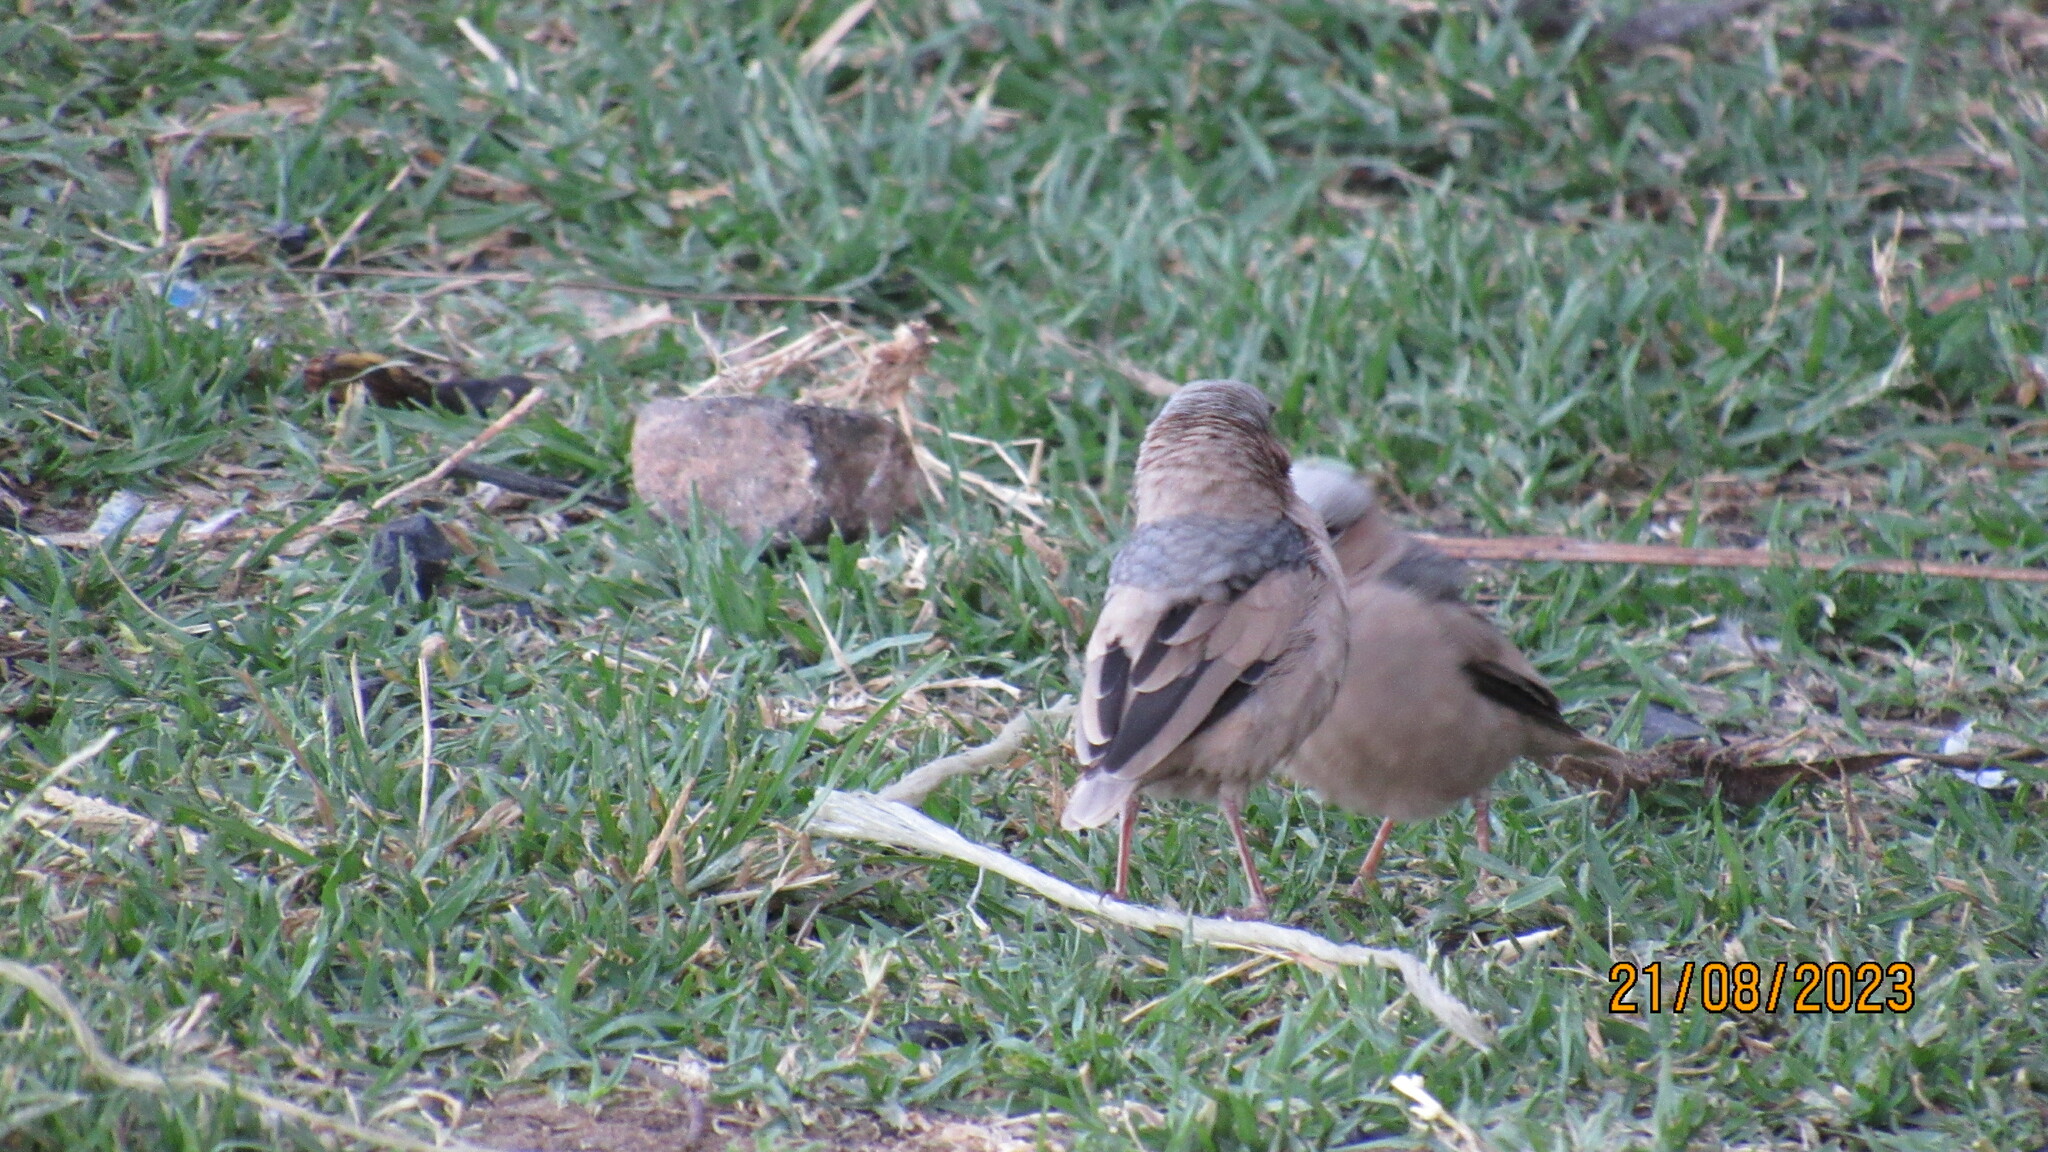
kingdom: Animalia
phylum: Chordata
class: Aves
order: Passeriformes
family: Passeridae
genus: Pseudonigrita
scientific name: Pseudonigrita arnaudi
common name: Grey-capped social weaver
